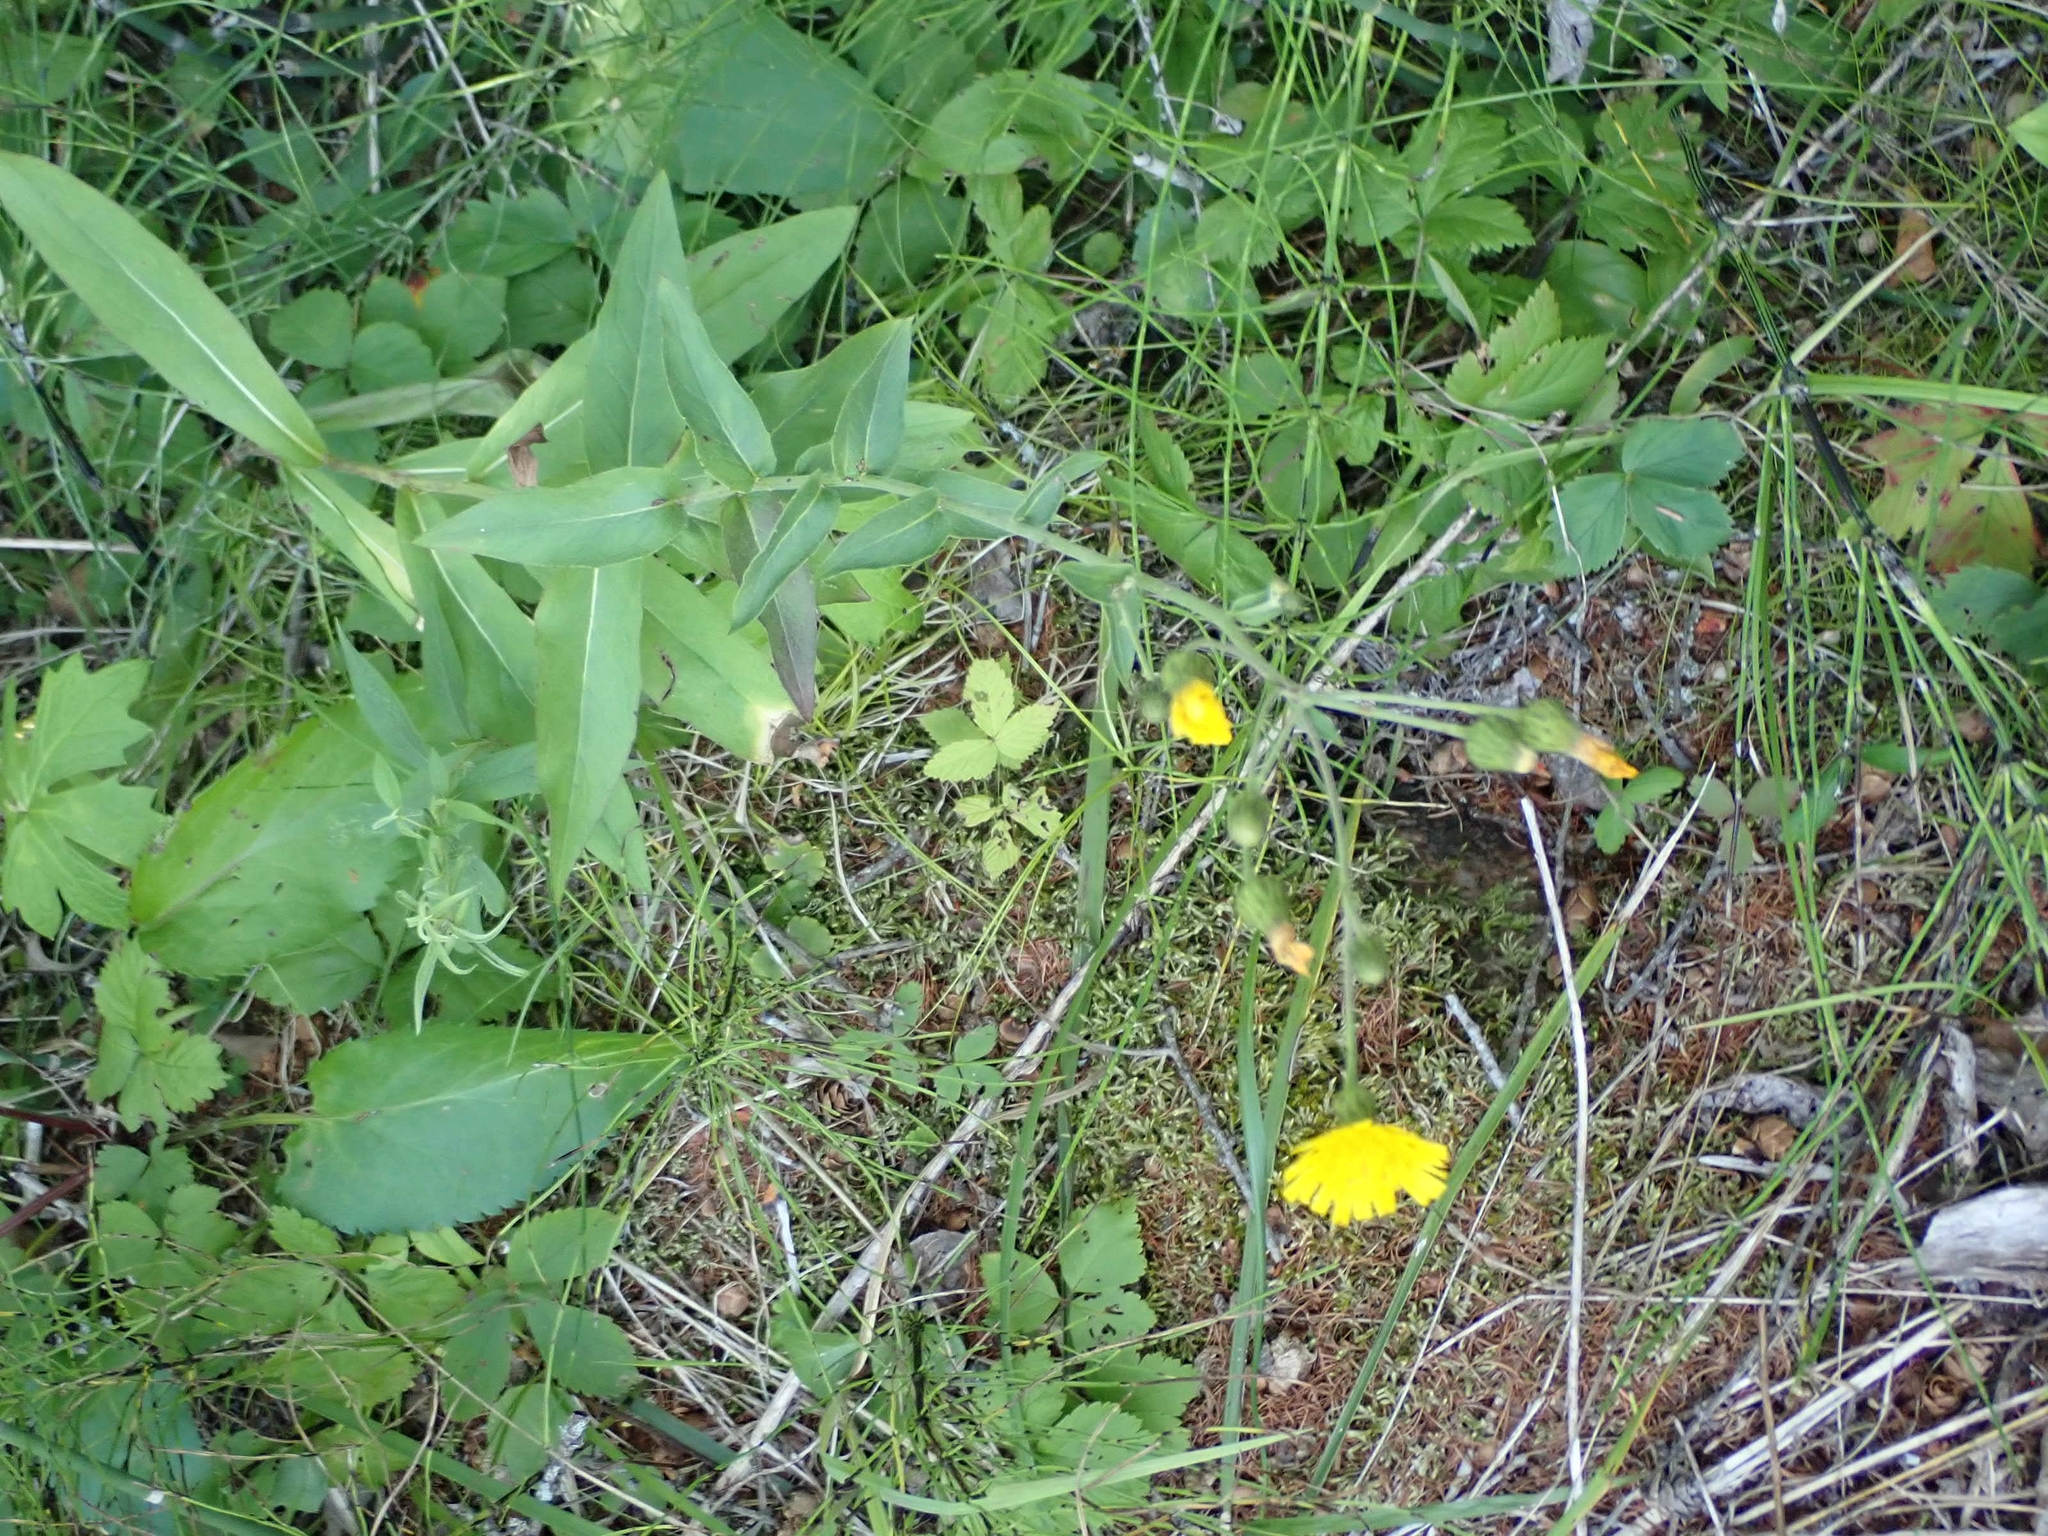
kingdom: Plantae
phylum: Tracheophyta
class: Magnoliopsida
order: Asterales
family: Asteraceae
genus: Hieracium
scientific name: Hieracium umbellatum
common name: Northern hawkweed
